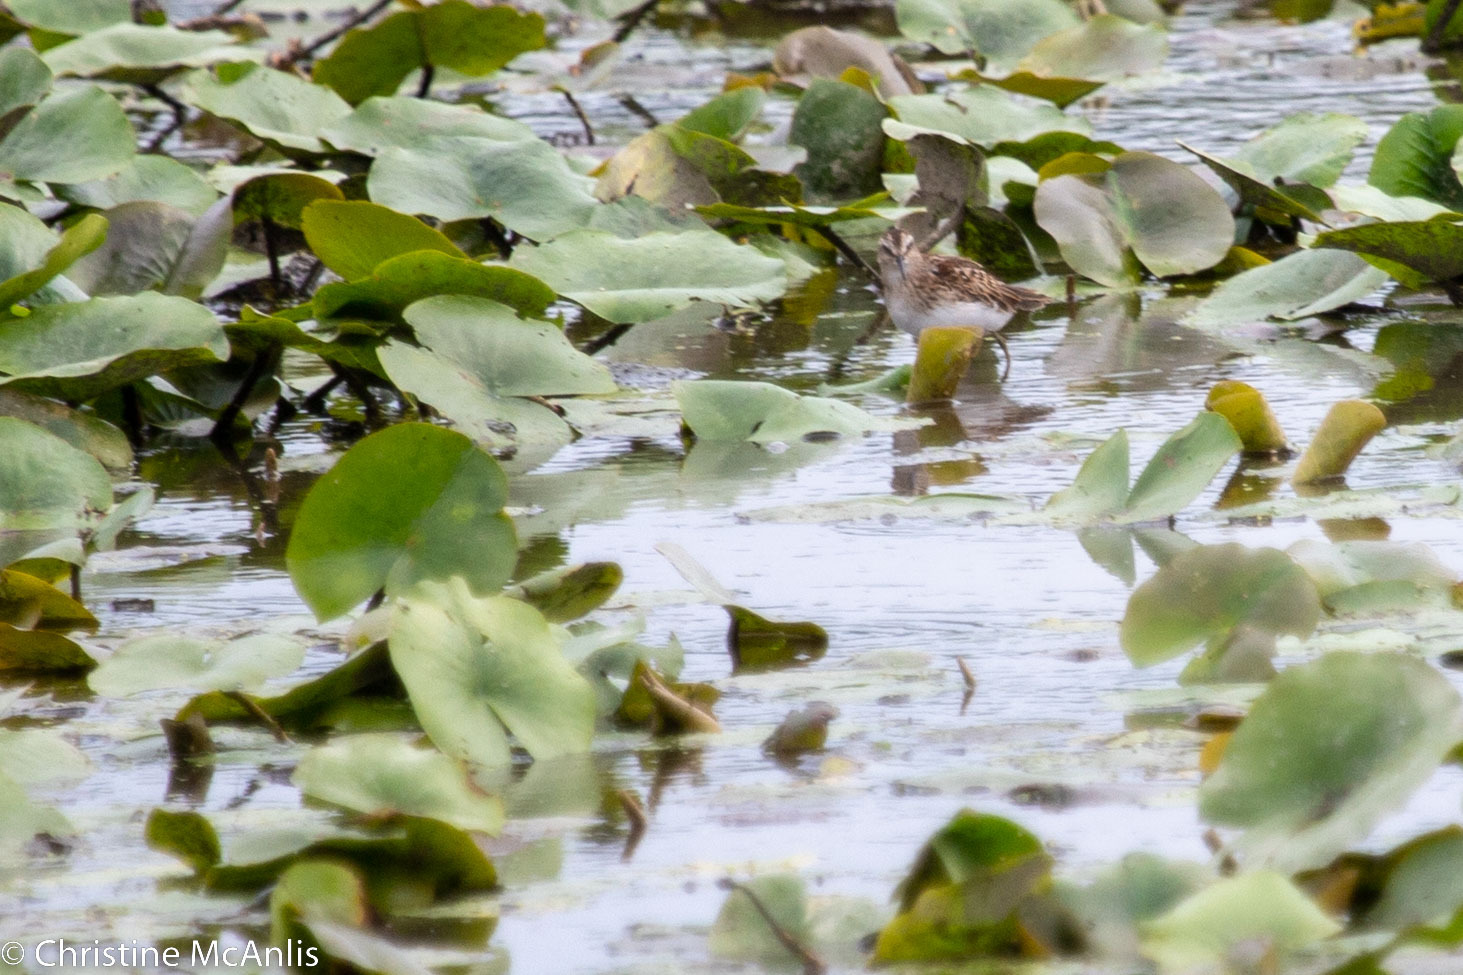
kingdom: Animalia
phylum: Chordata
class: Aves
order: Charadriiformes
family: Scolopacidae
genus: Calidris
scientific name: Calidris minutilla
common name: Least sandpiper
